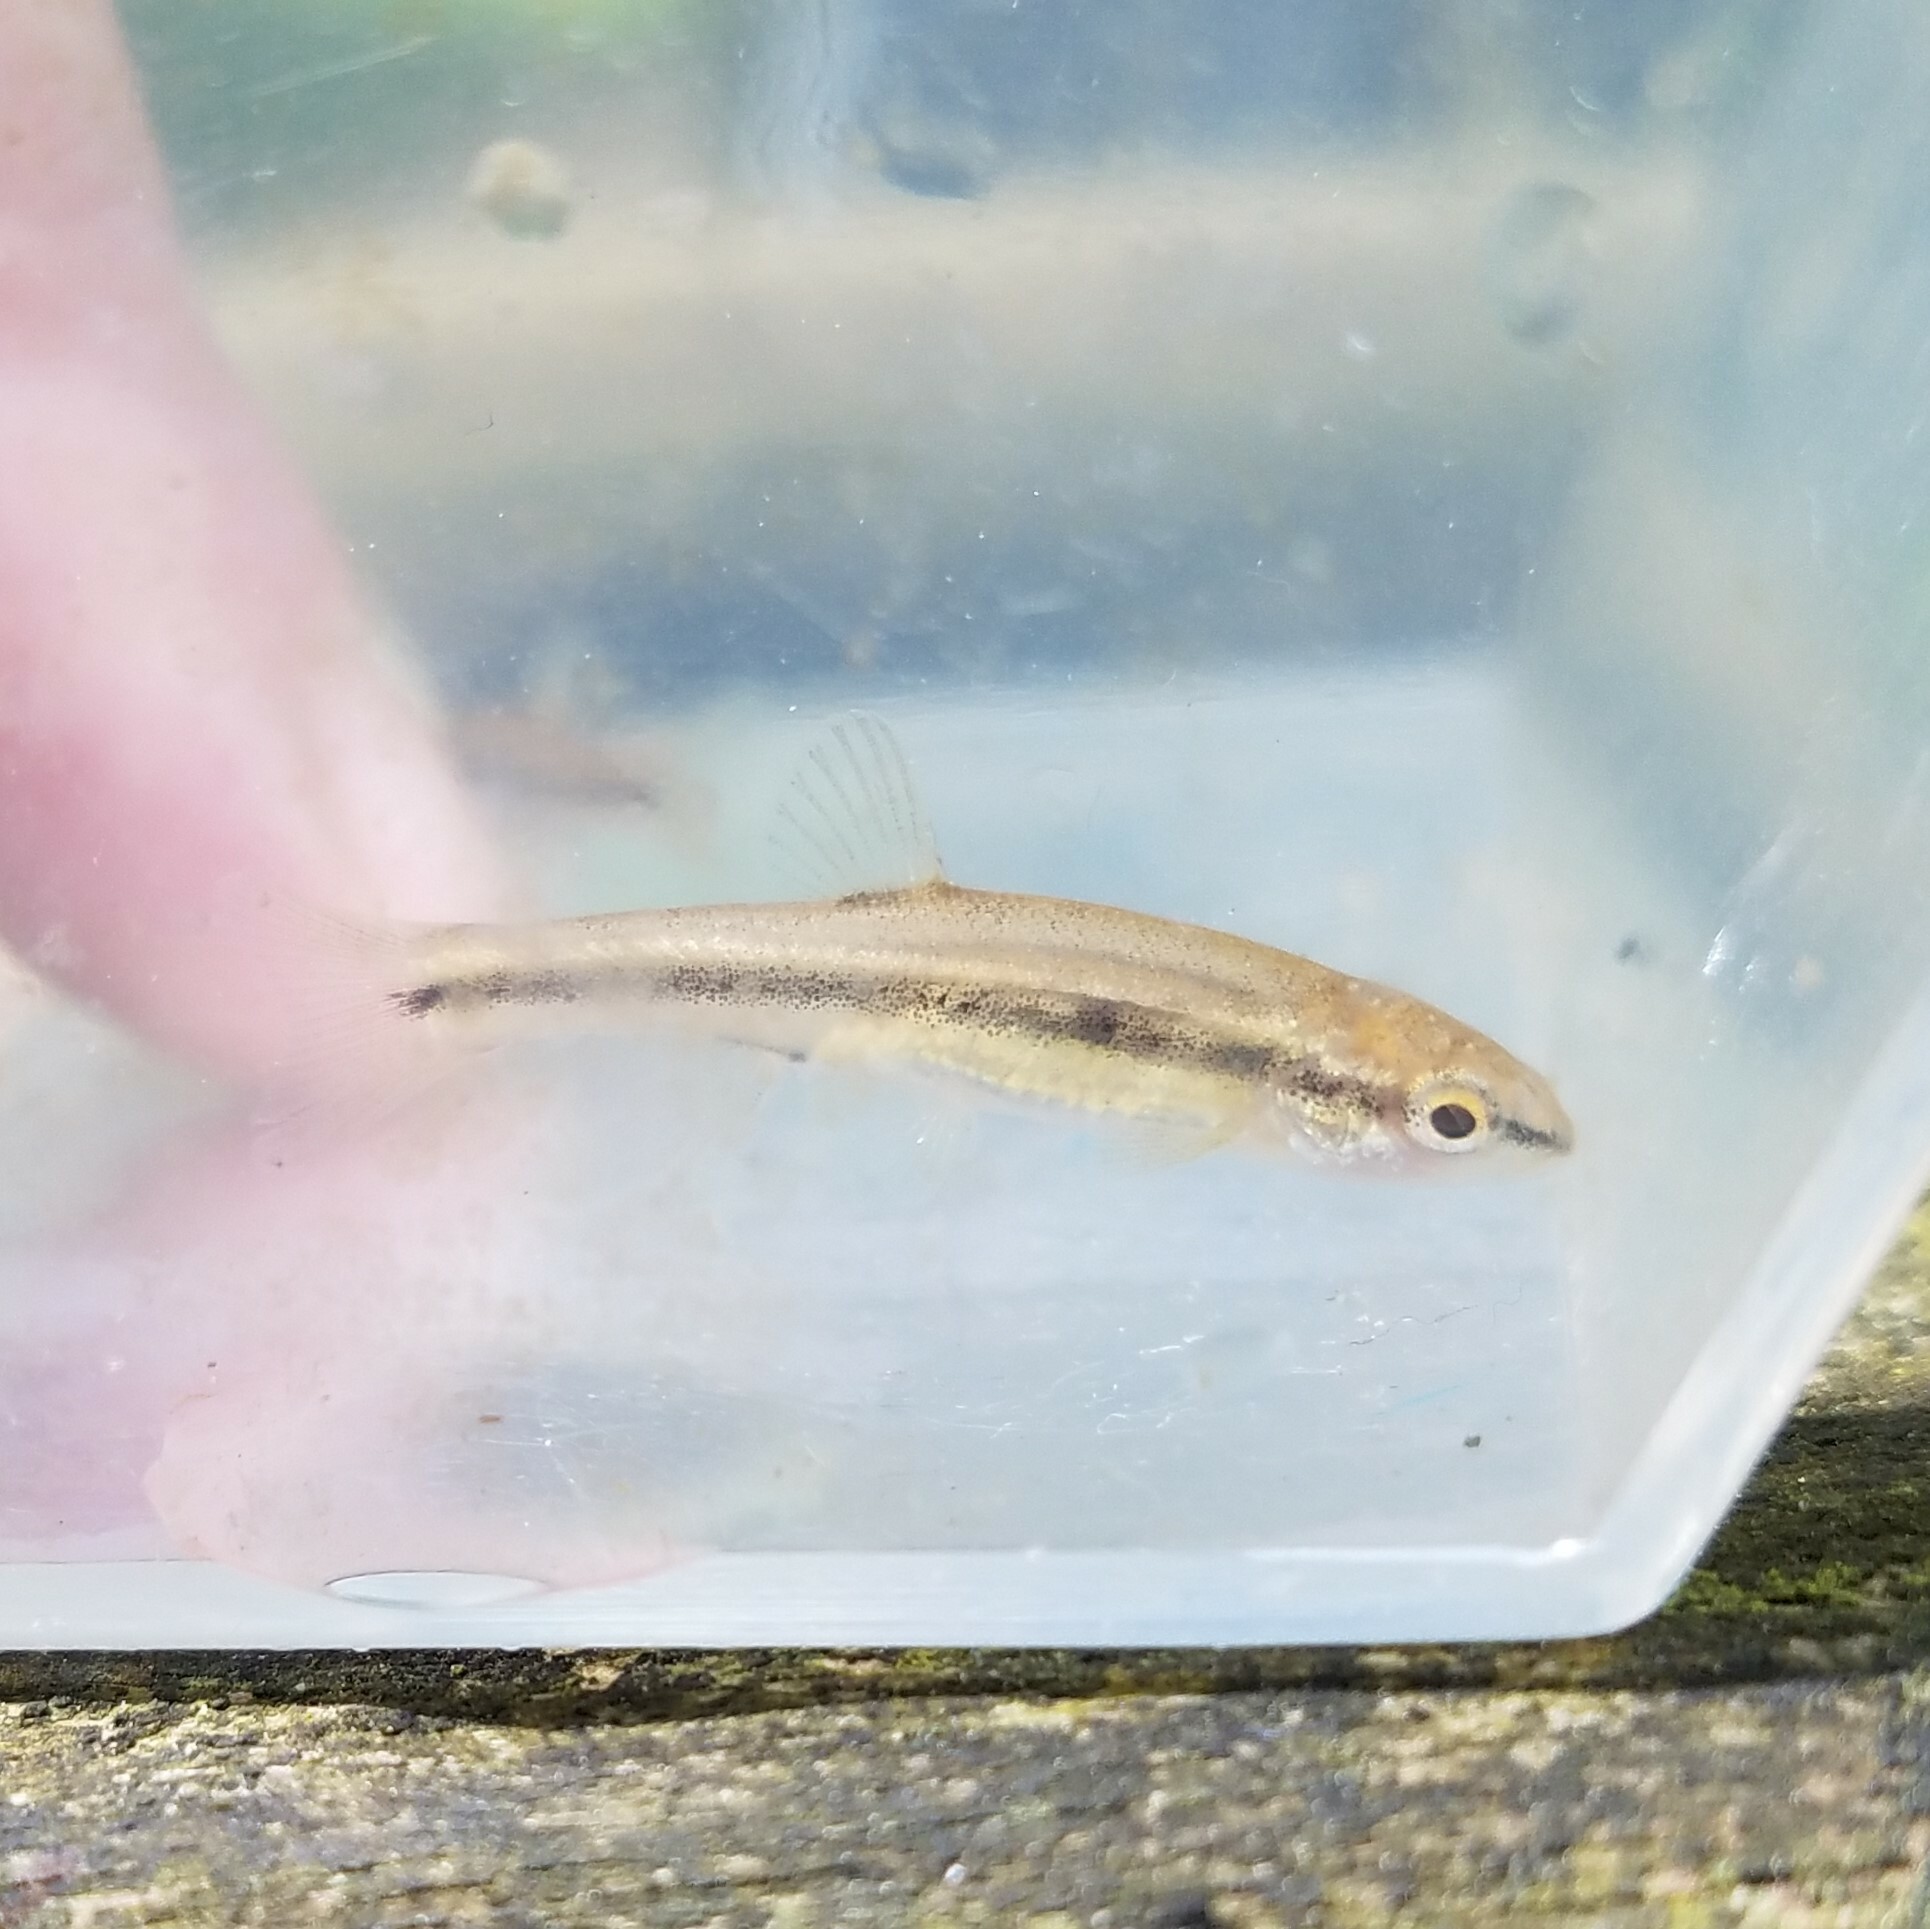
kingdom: Animalia
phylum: Chordata
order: Cypriniformes
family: Cyprinidae
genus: Rhinichthys
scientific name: Rhinichthys obtusus
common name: Western blacknose dace
